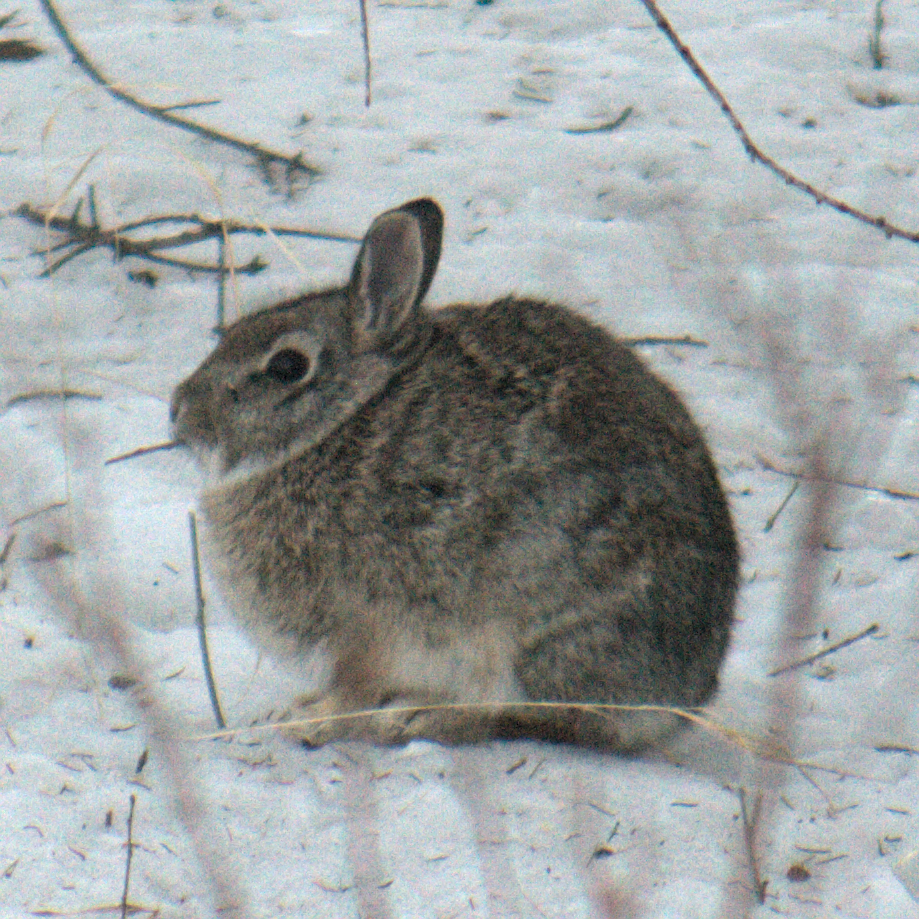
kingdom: Animalia
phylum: Chordata
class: Mammalia
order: Lagomorpha
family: Leporidae
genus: Sylvilagus
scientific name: Sylvilagus floridanus
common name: Eastern cottontail
